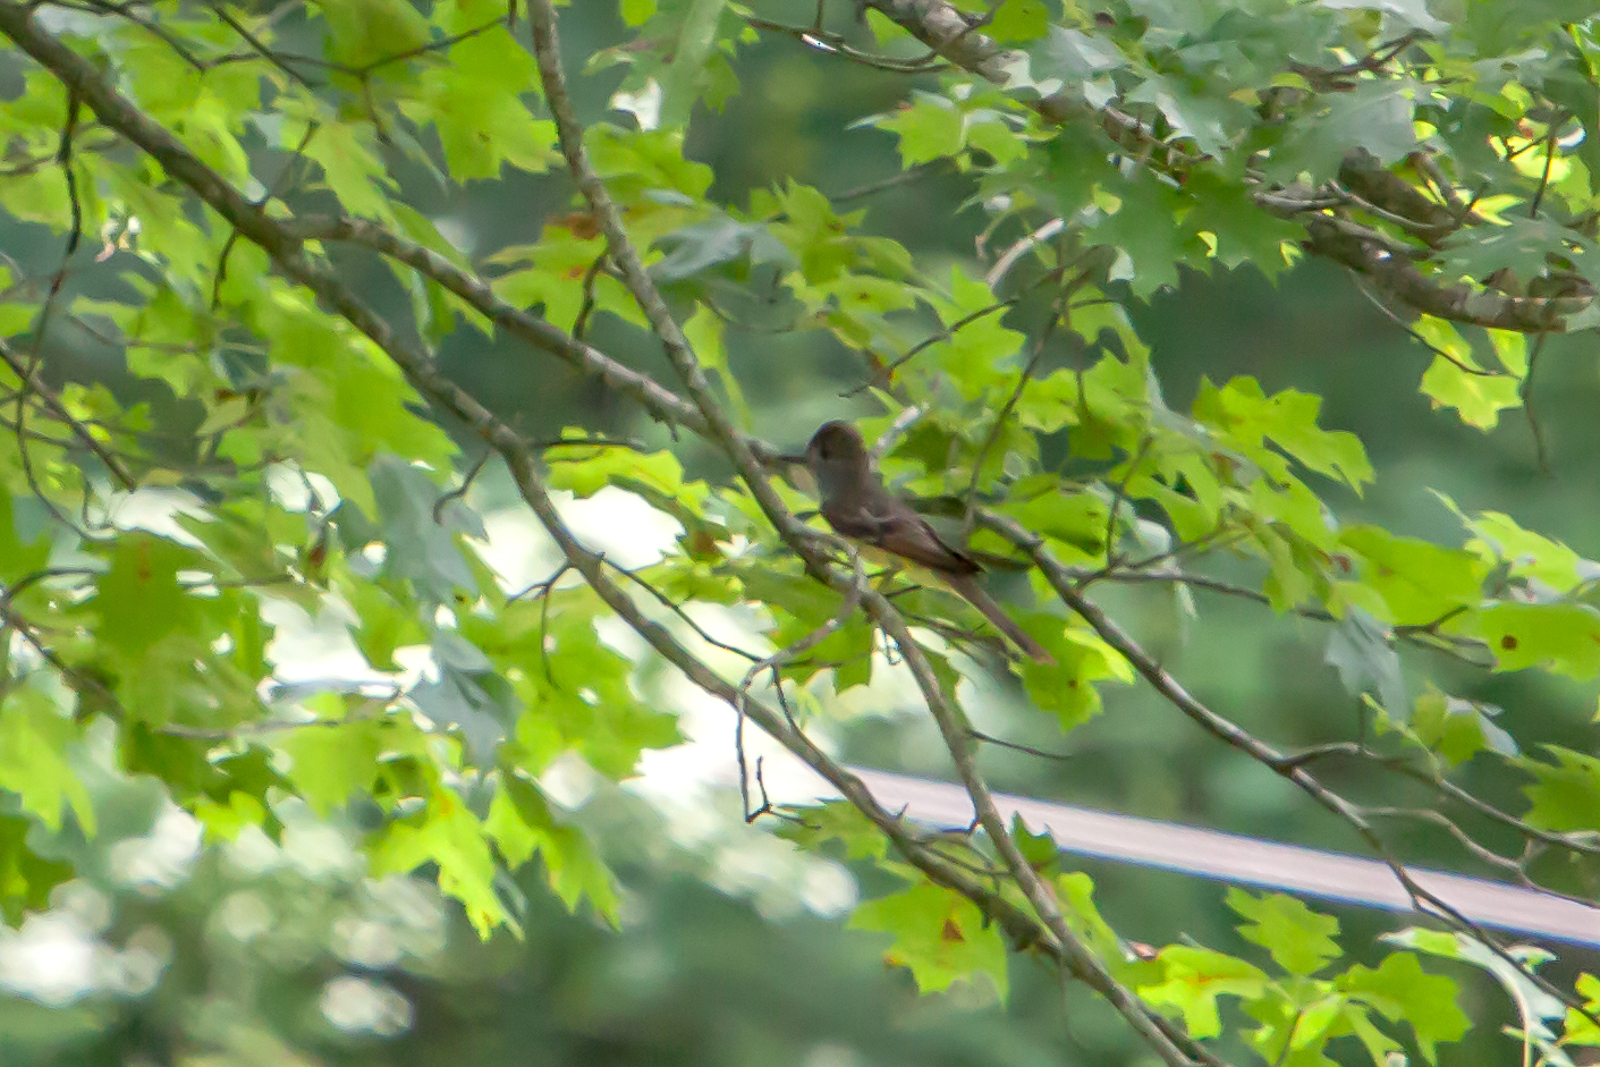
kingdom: Animalia
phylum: Chordata
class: Aves
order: Passeriformes
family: Tyrannidae
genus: Myiarchus
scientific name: Myiarchus crinitus
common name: Great crested flycatcher
